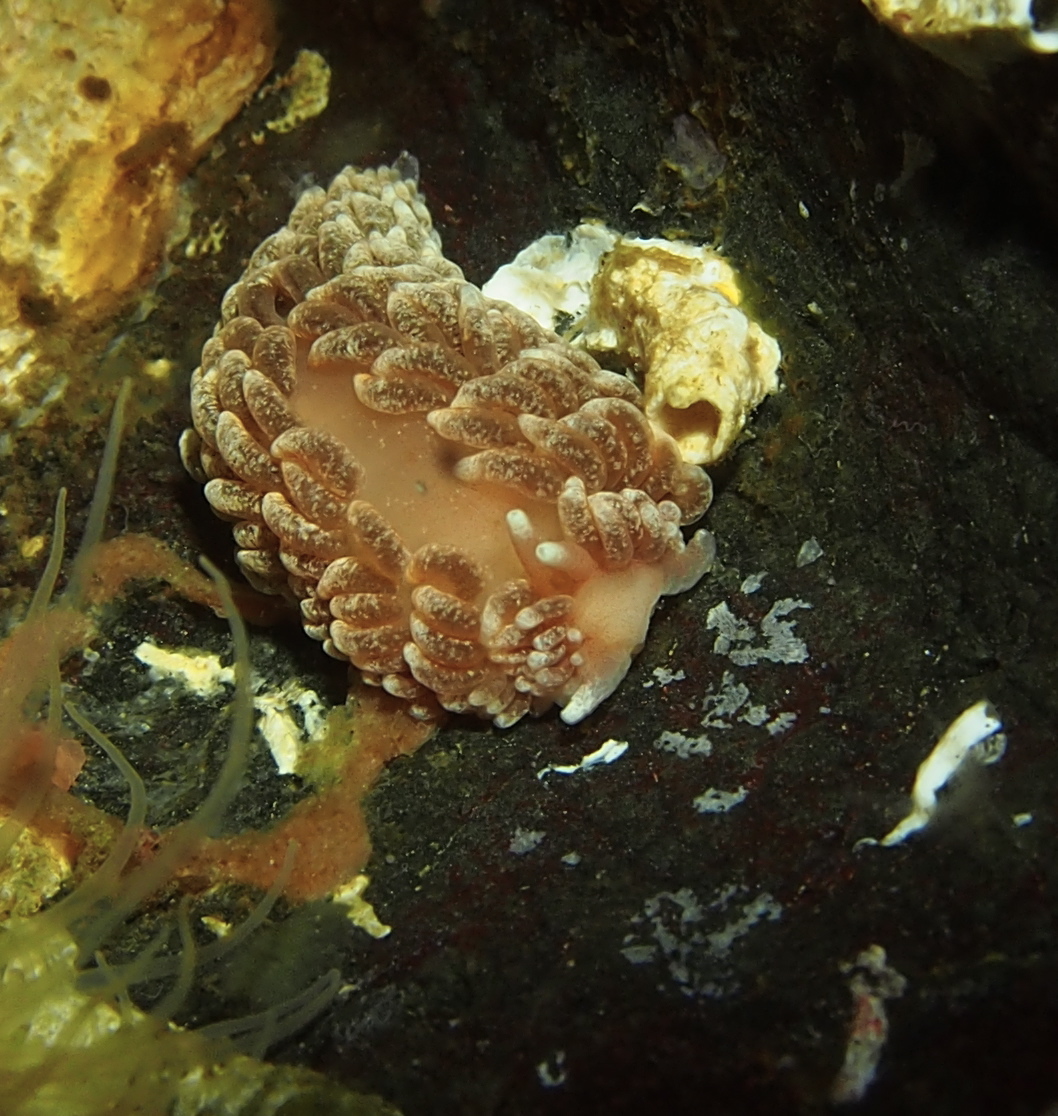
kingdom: Animalia
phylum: Mollusca
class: Gastropoda
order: Nudibranchia
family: Aeolidiidae
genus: Aeolidiella
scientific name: Aeolidiella glauca
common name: Orange-brown aeolid
